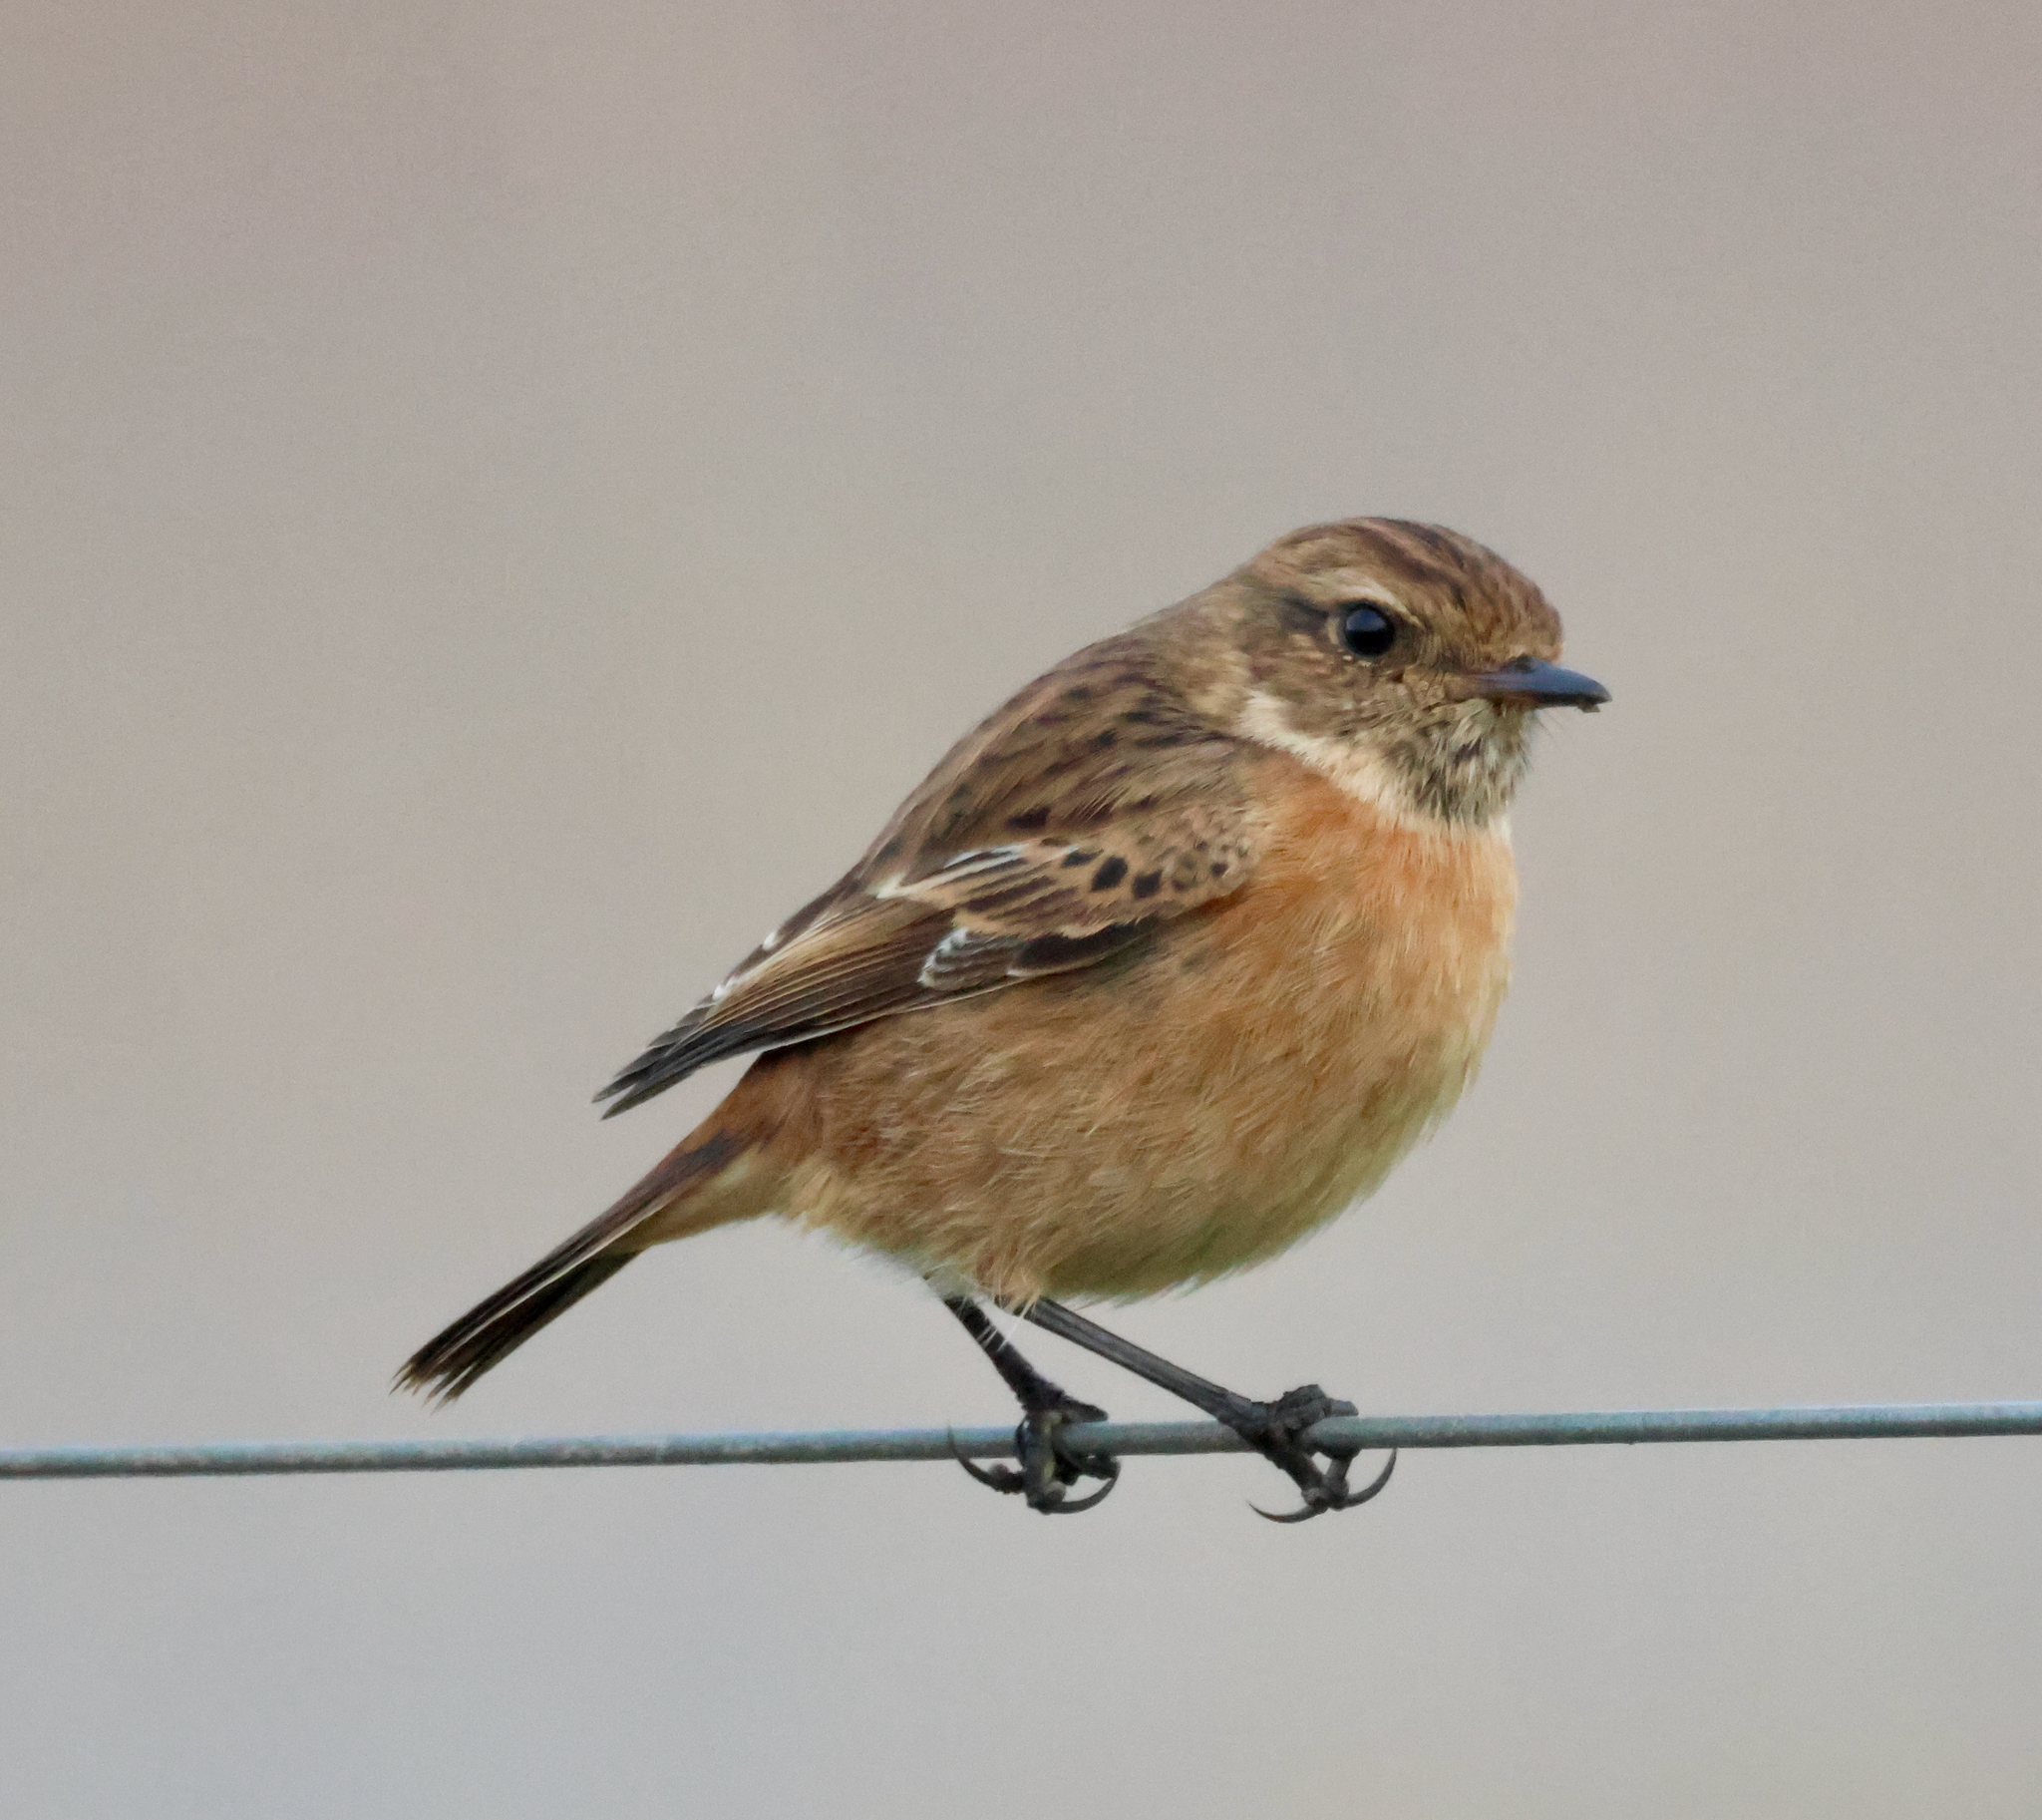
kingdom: Animalia
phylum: Chordata
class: Aves
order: Passeriformes
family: Muscicapidae
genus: Saxicola
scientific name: Saxicola rubicola
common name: European stonechat
